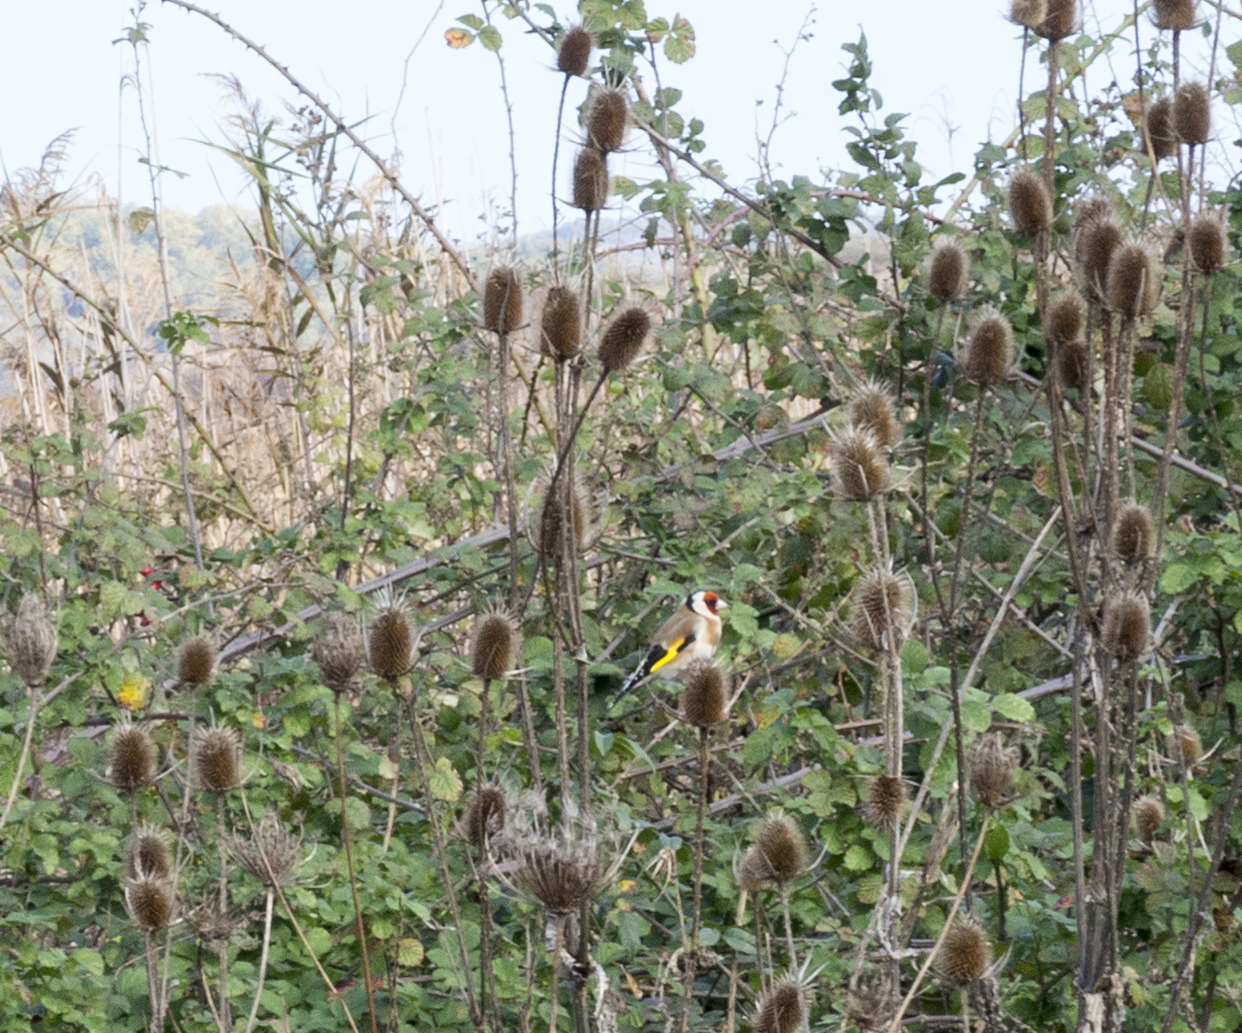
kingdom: Animalia
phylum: Chordata
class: Aves
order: Passeriformes
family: Fringillidae
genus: Carduelis
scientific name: Carduelis carduelis
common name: European goldfinch
